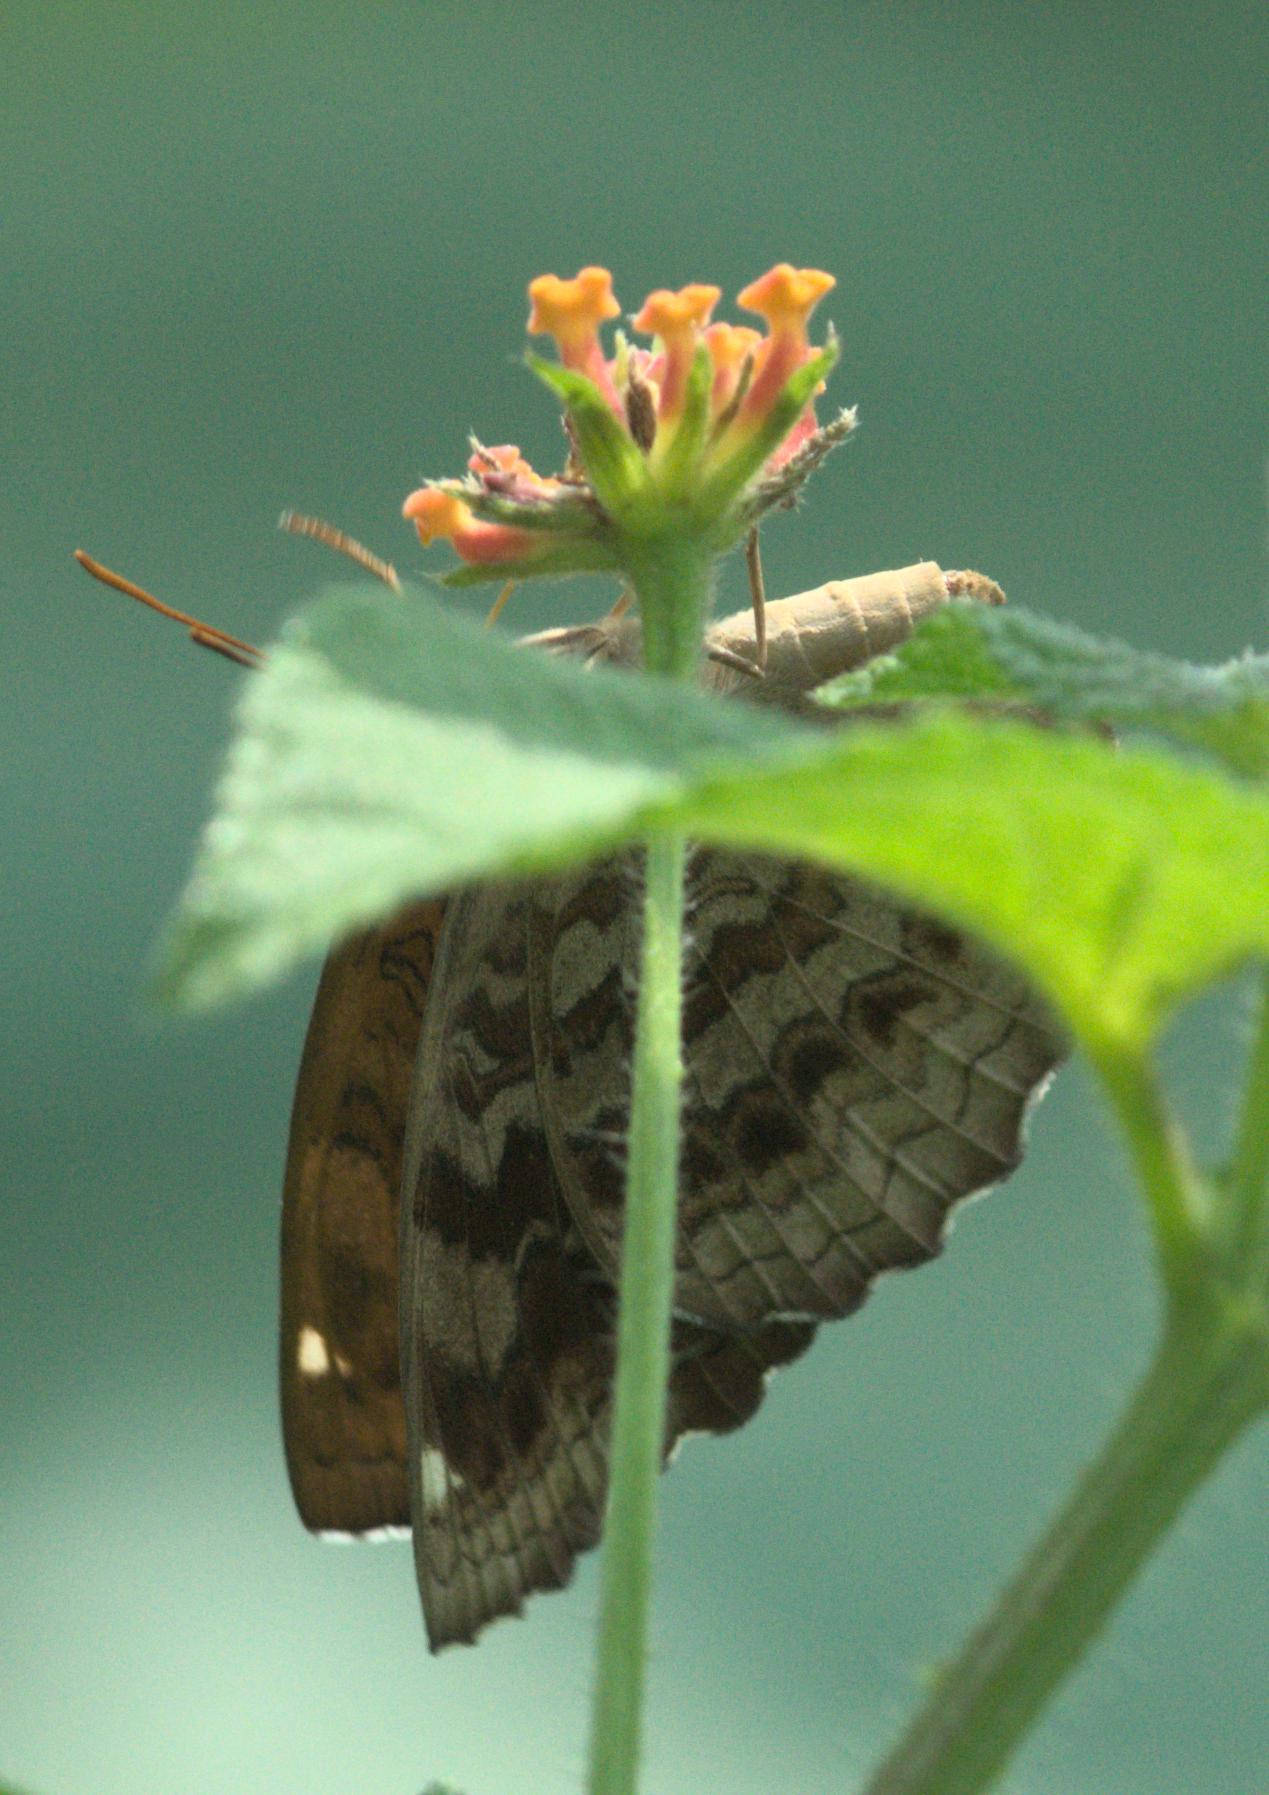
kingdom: Animalia
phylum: Arthropoda
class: Insecta
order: Lepidoptera
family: Nymphalidae
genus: Ariadne
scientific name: Ariadne merione
